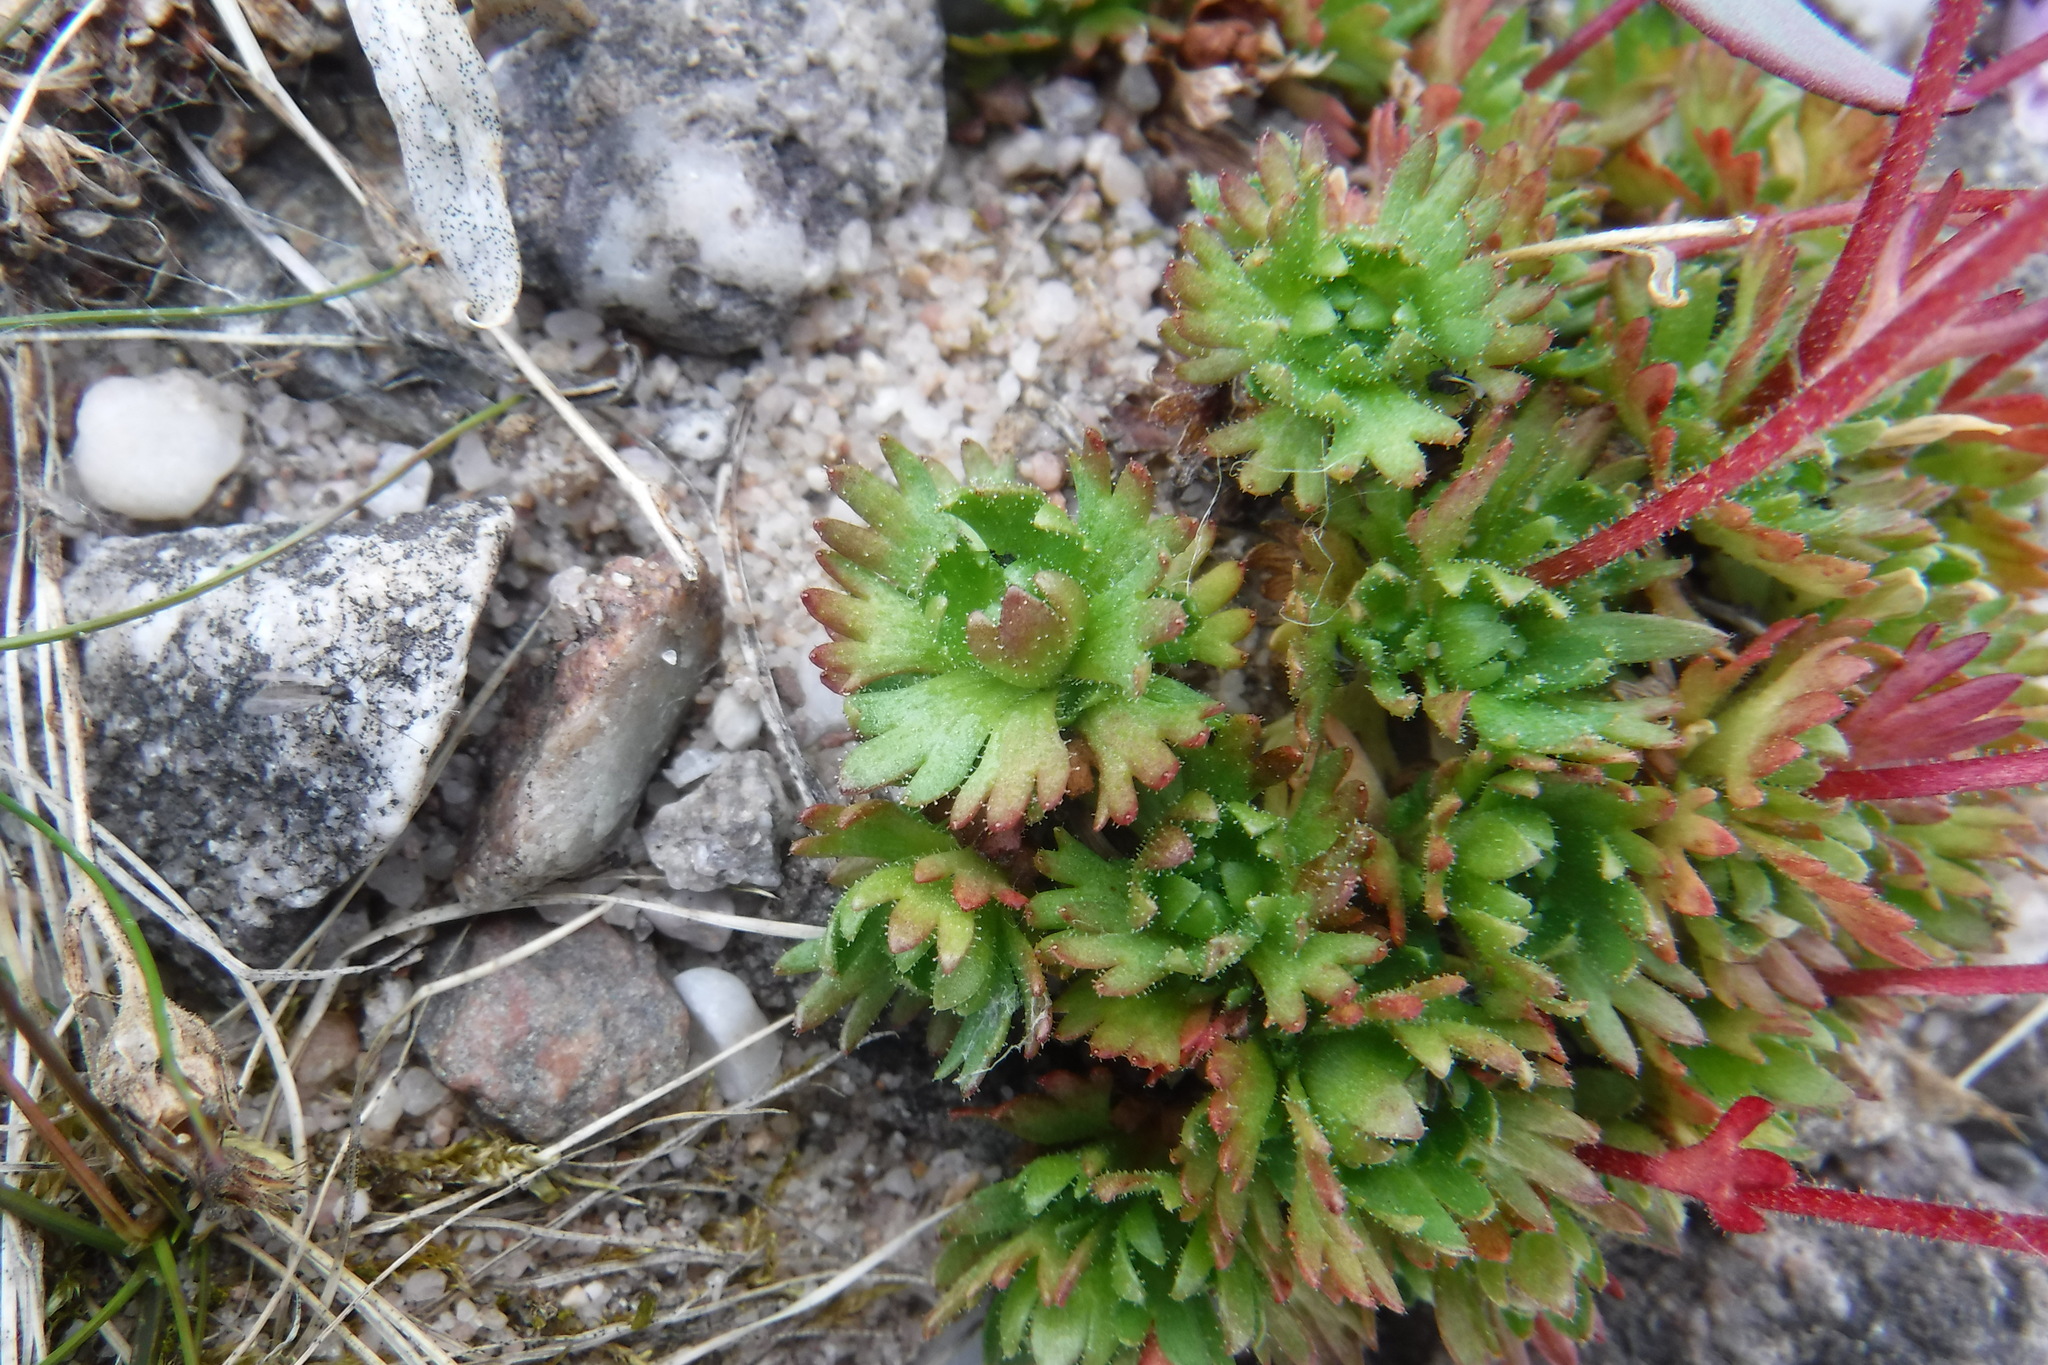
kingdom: Plantae
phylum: Tracheophyta
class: Magnoliopsida
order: Saxifragales
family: Saxifragaceae
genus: Saxifraga
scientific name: Saxifraga cespitosa
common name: Tufted saxifrage
